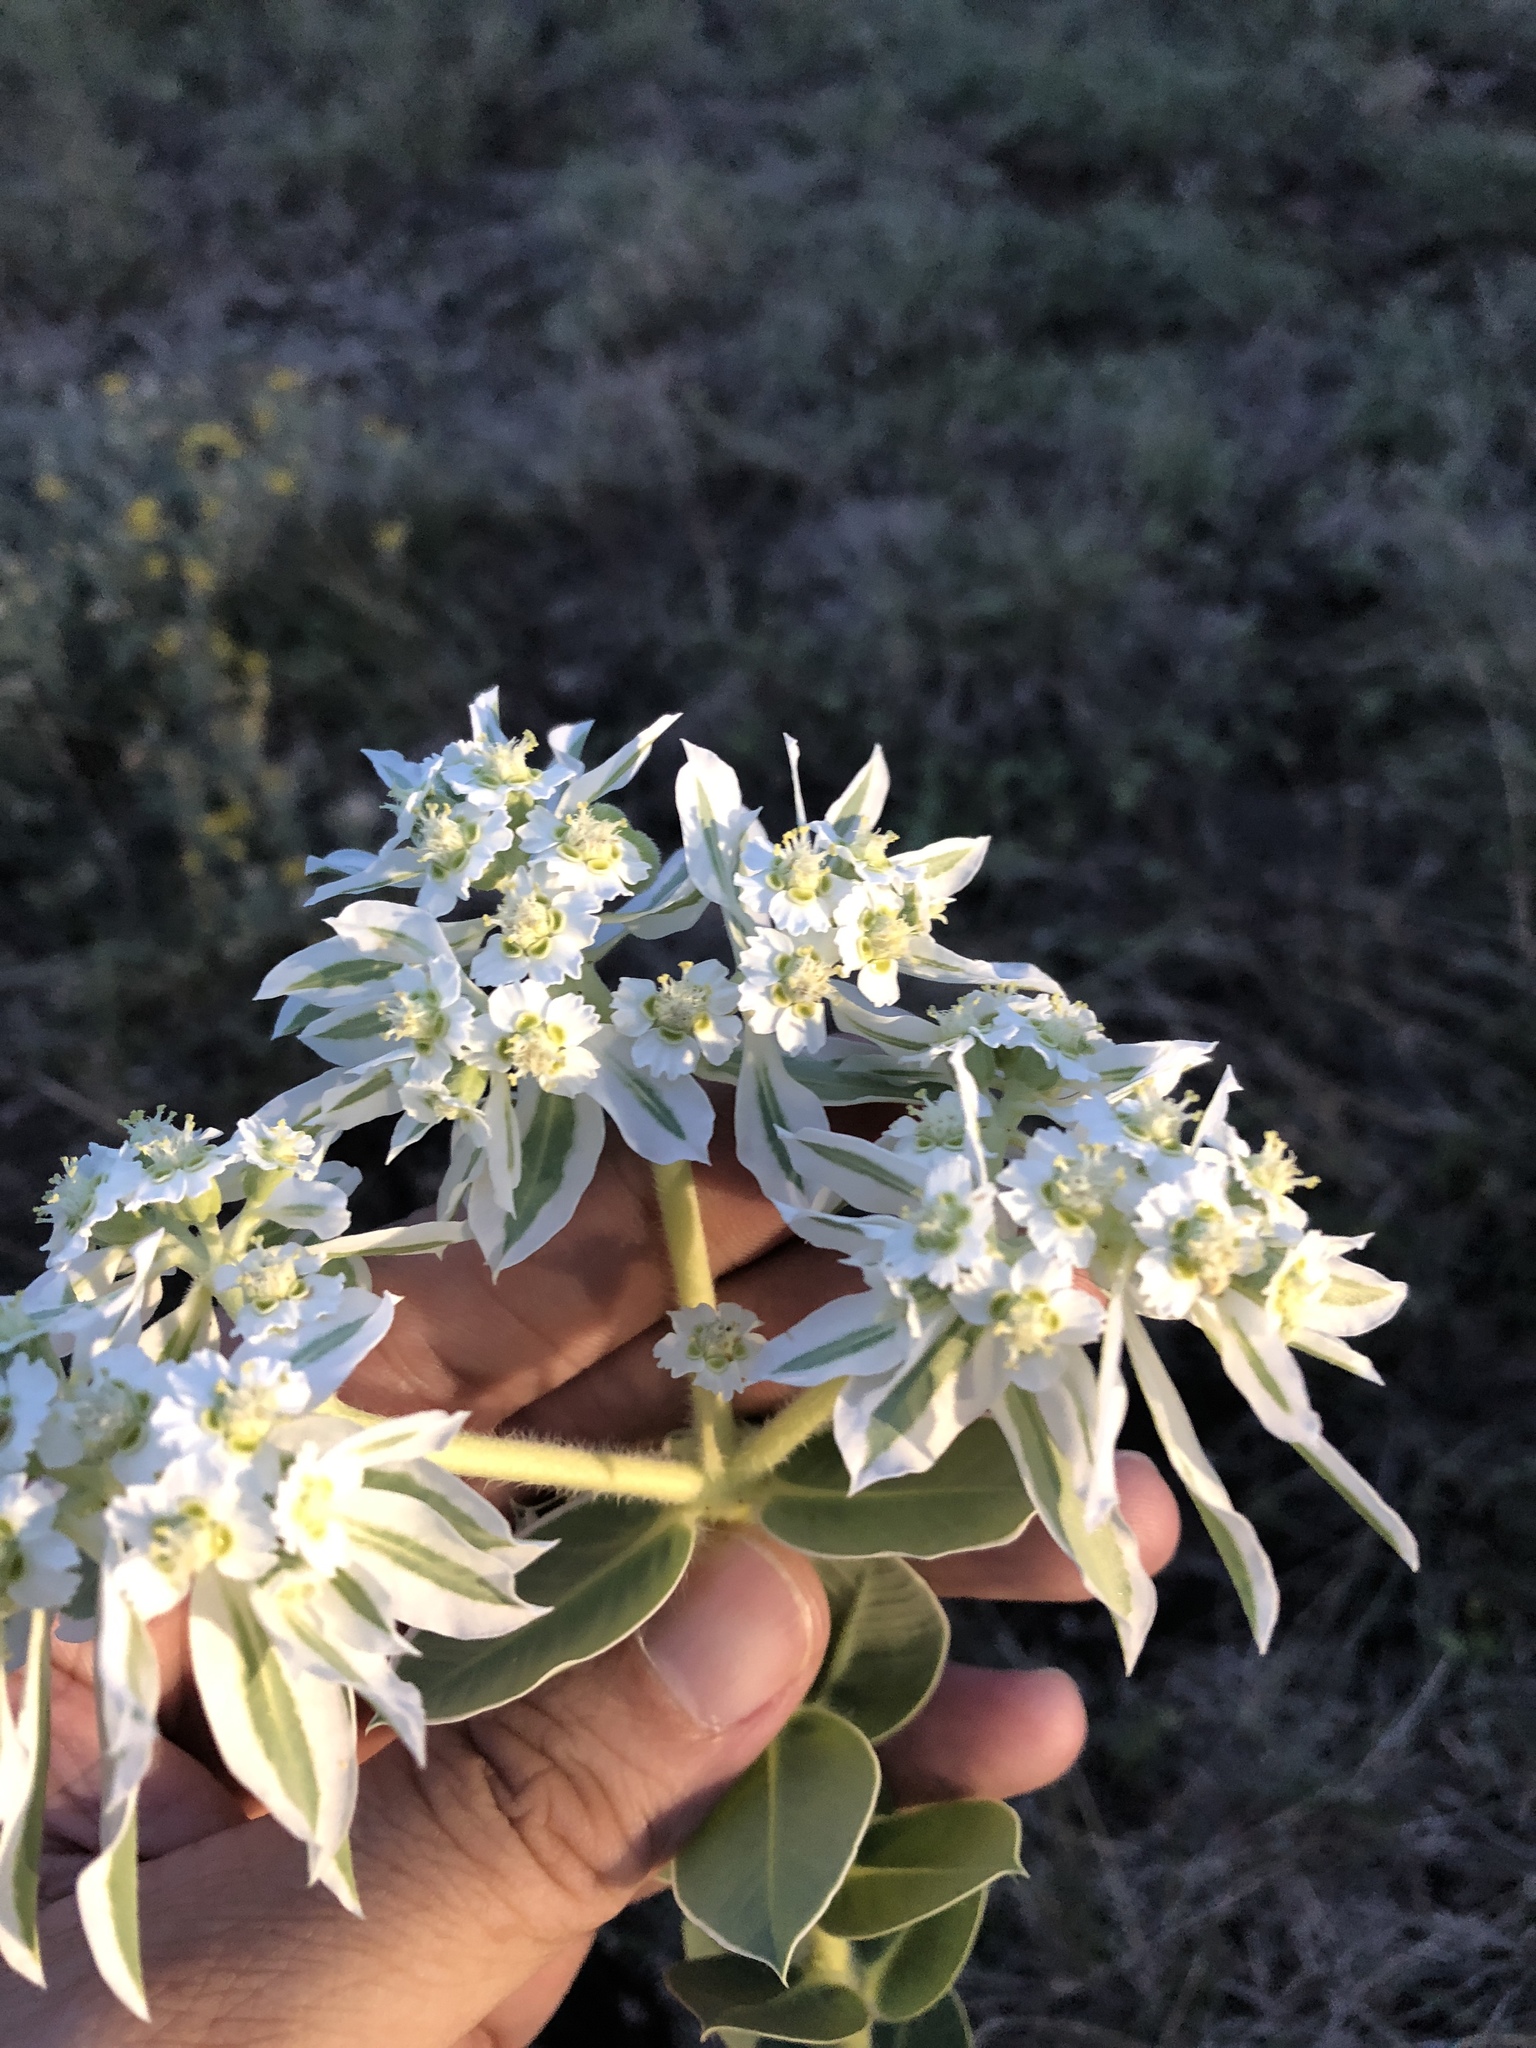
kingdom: Plantae
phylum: Tracheophyta
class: Magnoliopsida
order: Malpighiales
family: Euphorbiaceae
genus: Euphorbia
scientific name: Euphorbia marginata
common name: Ghostweed
